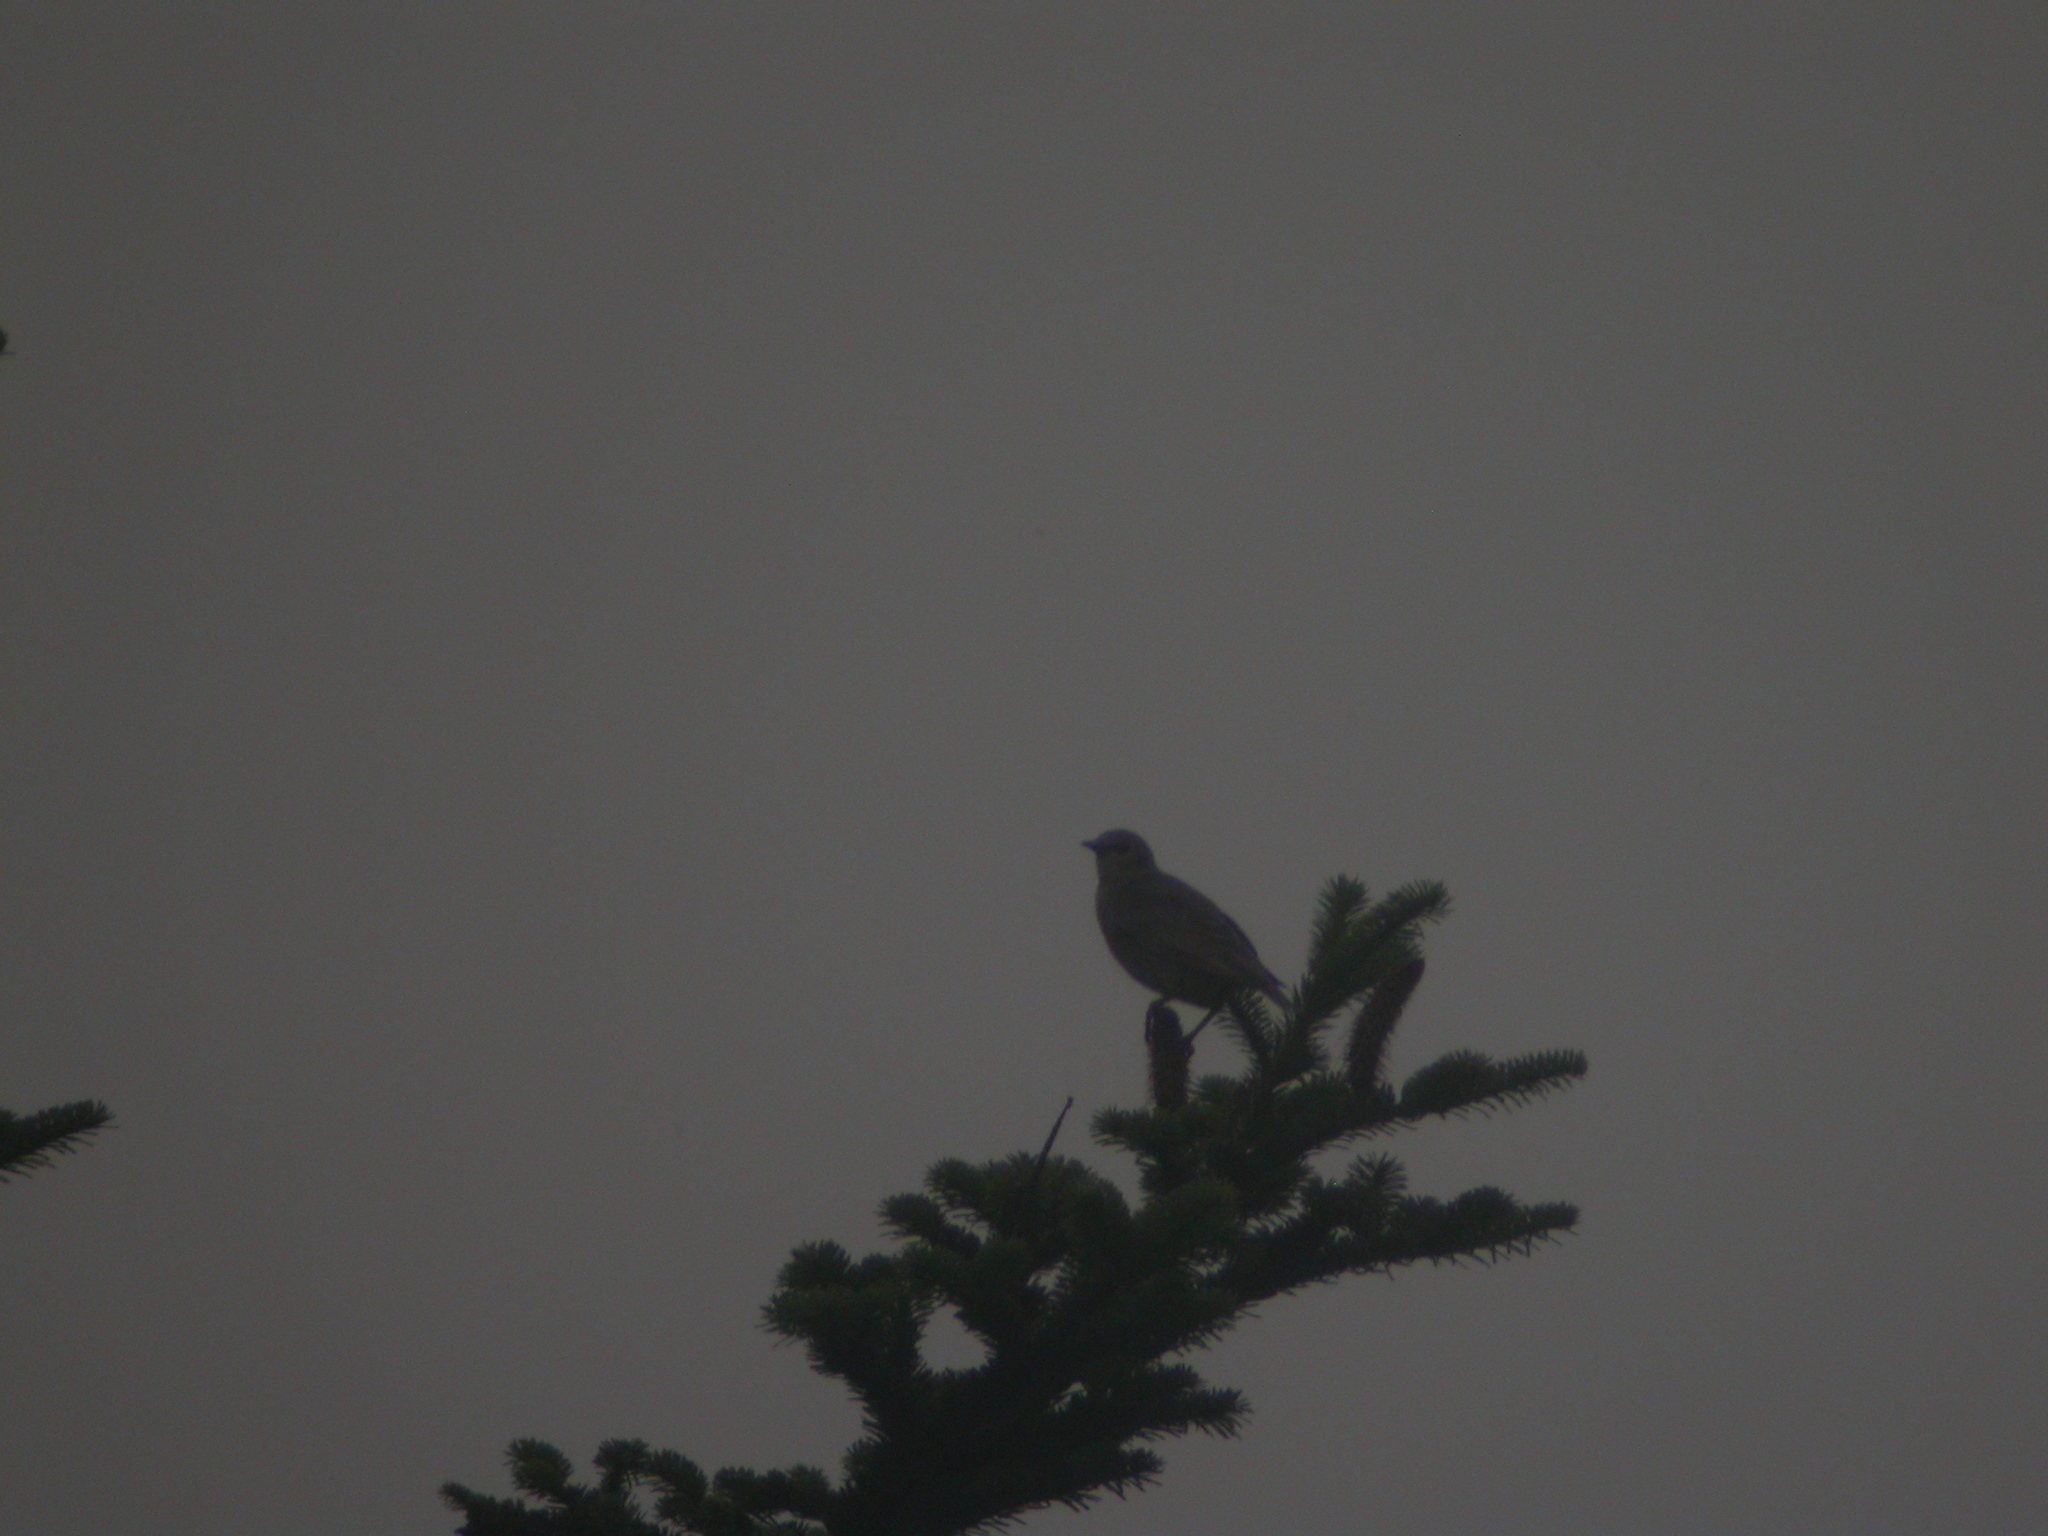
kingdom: Animalia
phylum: Chordata
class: Aves
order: Passeriformes
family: Sturnidae
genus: Sturnus
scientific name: Sturnus vulgaris
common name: Common starling
